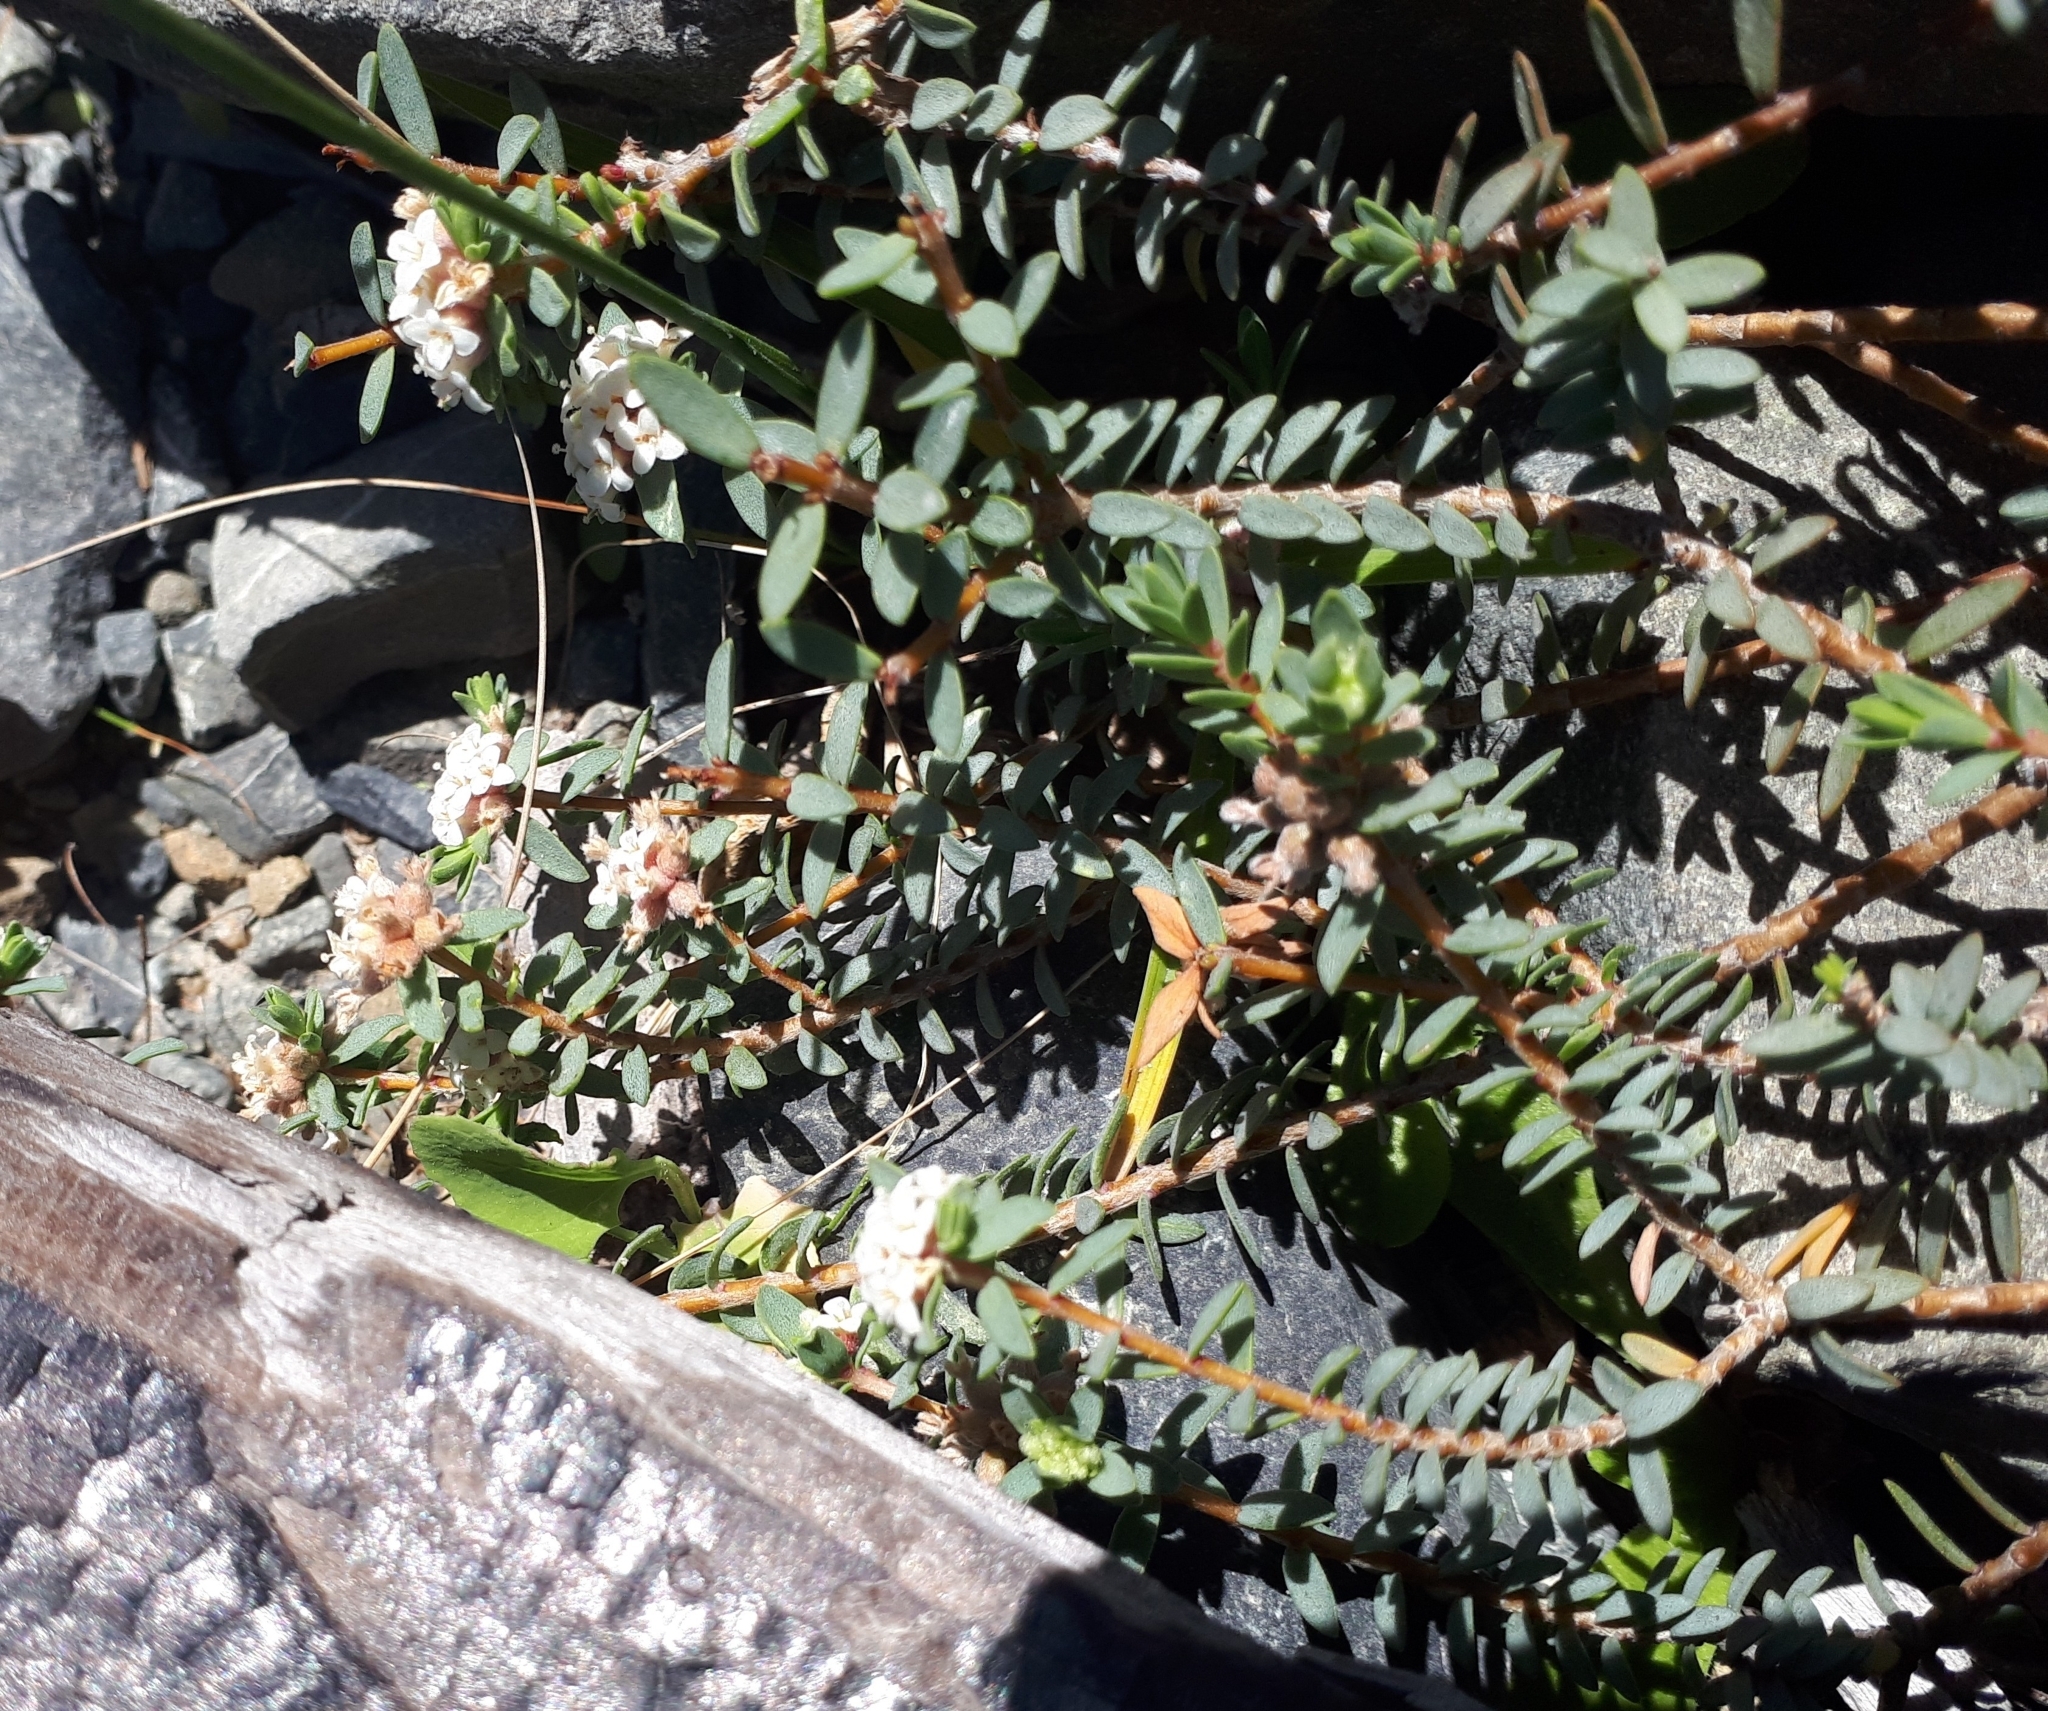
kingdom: Plantae
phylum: Tracheophyta
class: Magnoliopsida
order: Malvales
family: Thymelaeaceae
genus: Pimelea
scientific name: Pimelea prostrata
